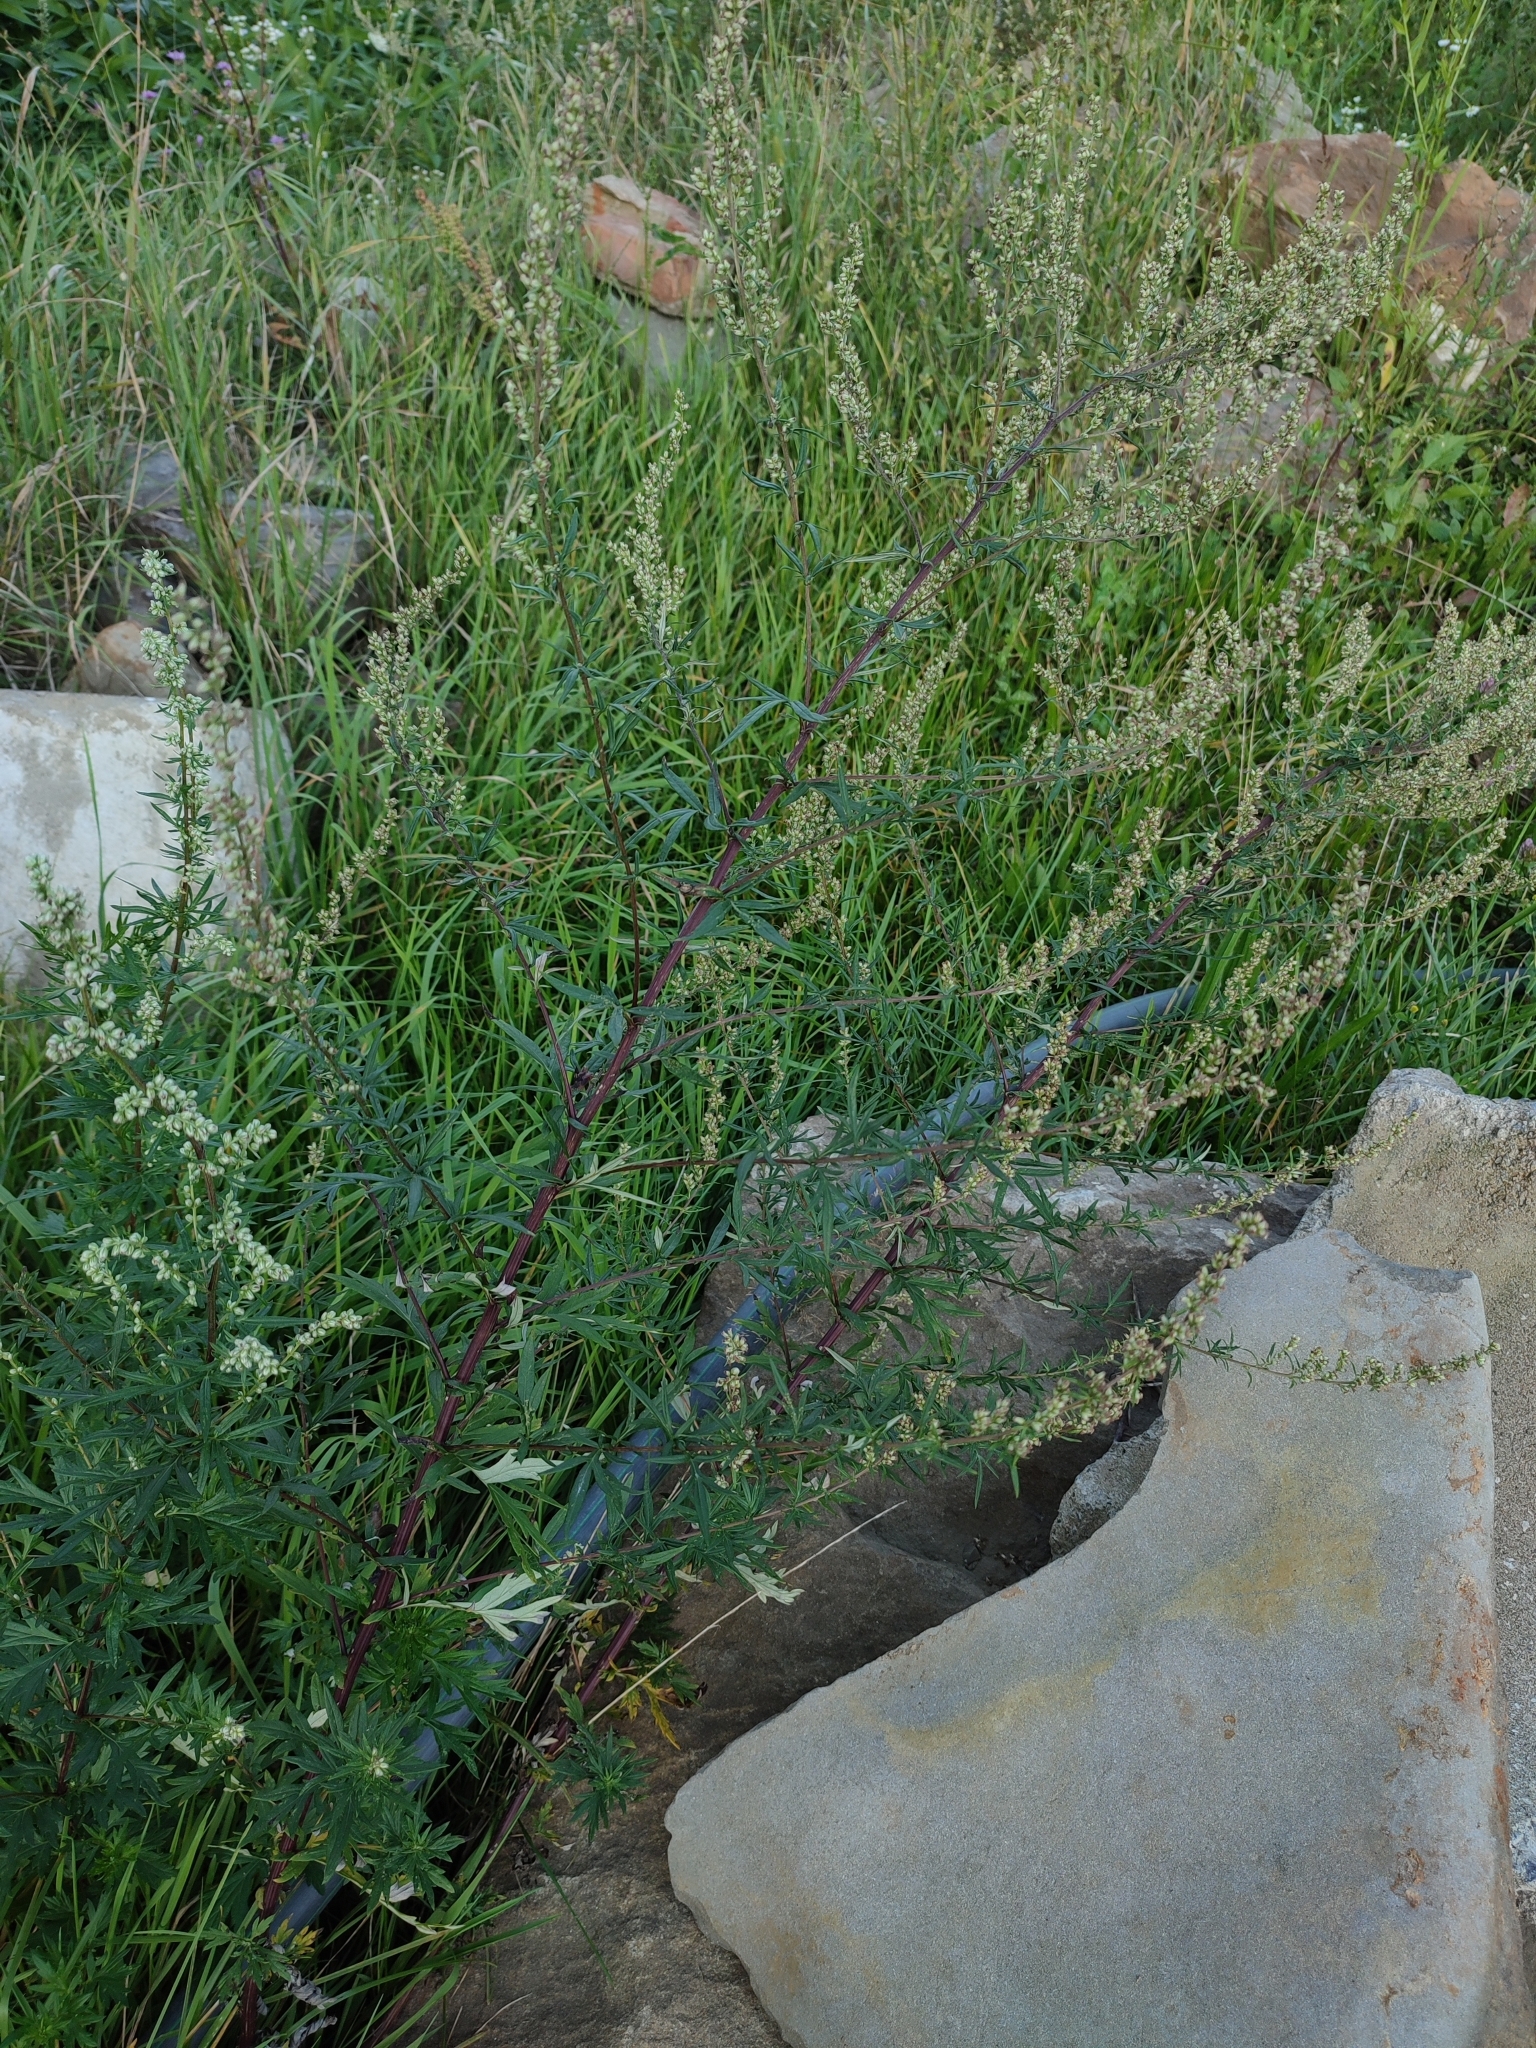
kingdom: Plantae
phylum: Tracheophyta
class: Magnoliopsida
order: Asterales
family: Asteraceae
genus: Artemisia
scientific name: Artemisia vulgaris
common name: Mugwort
